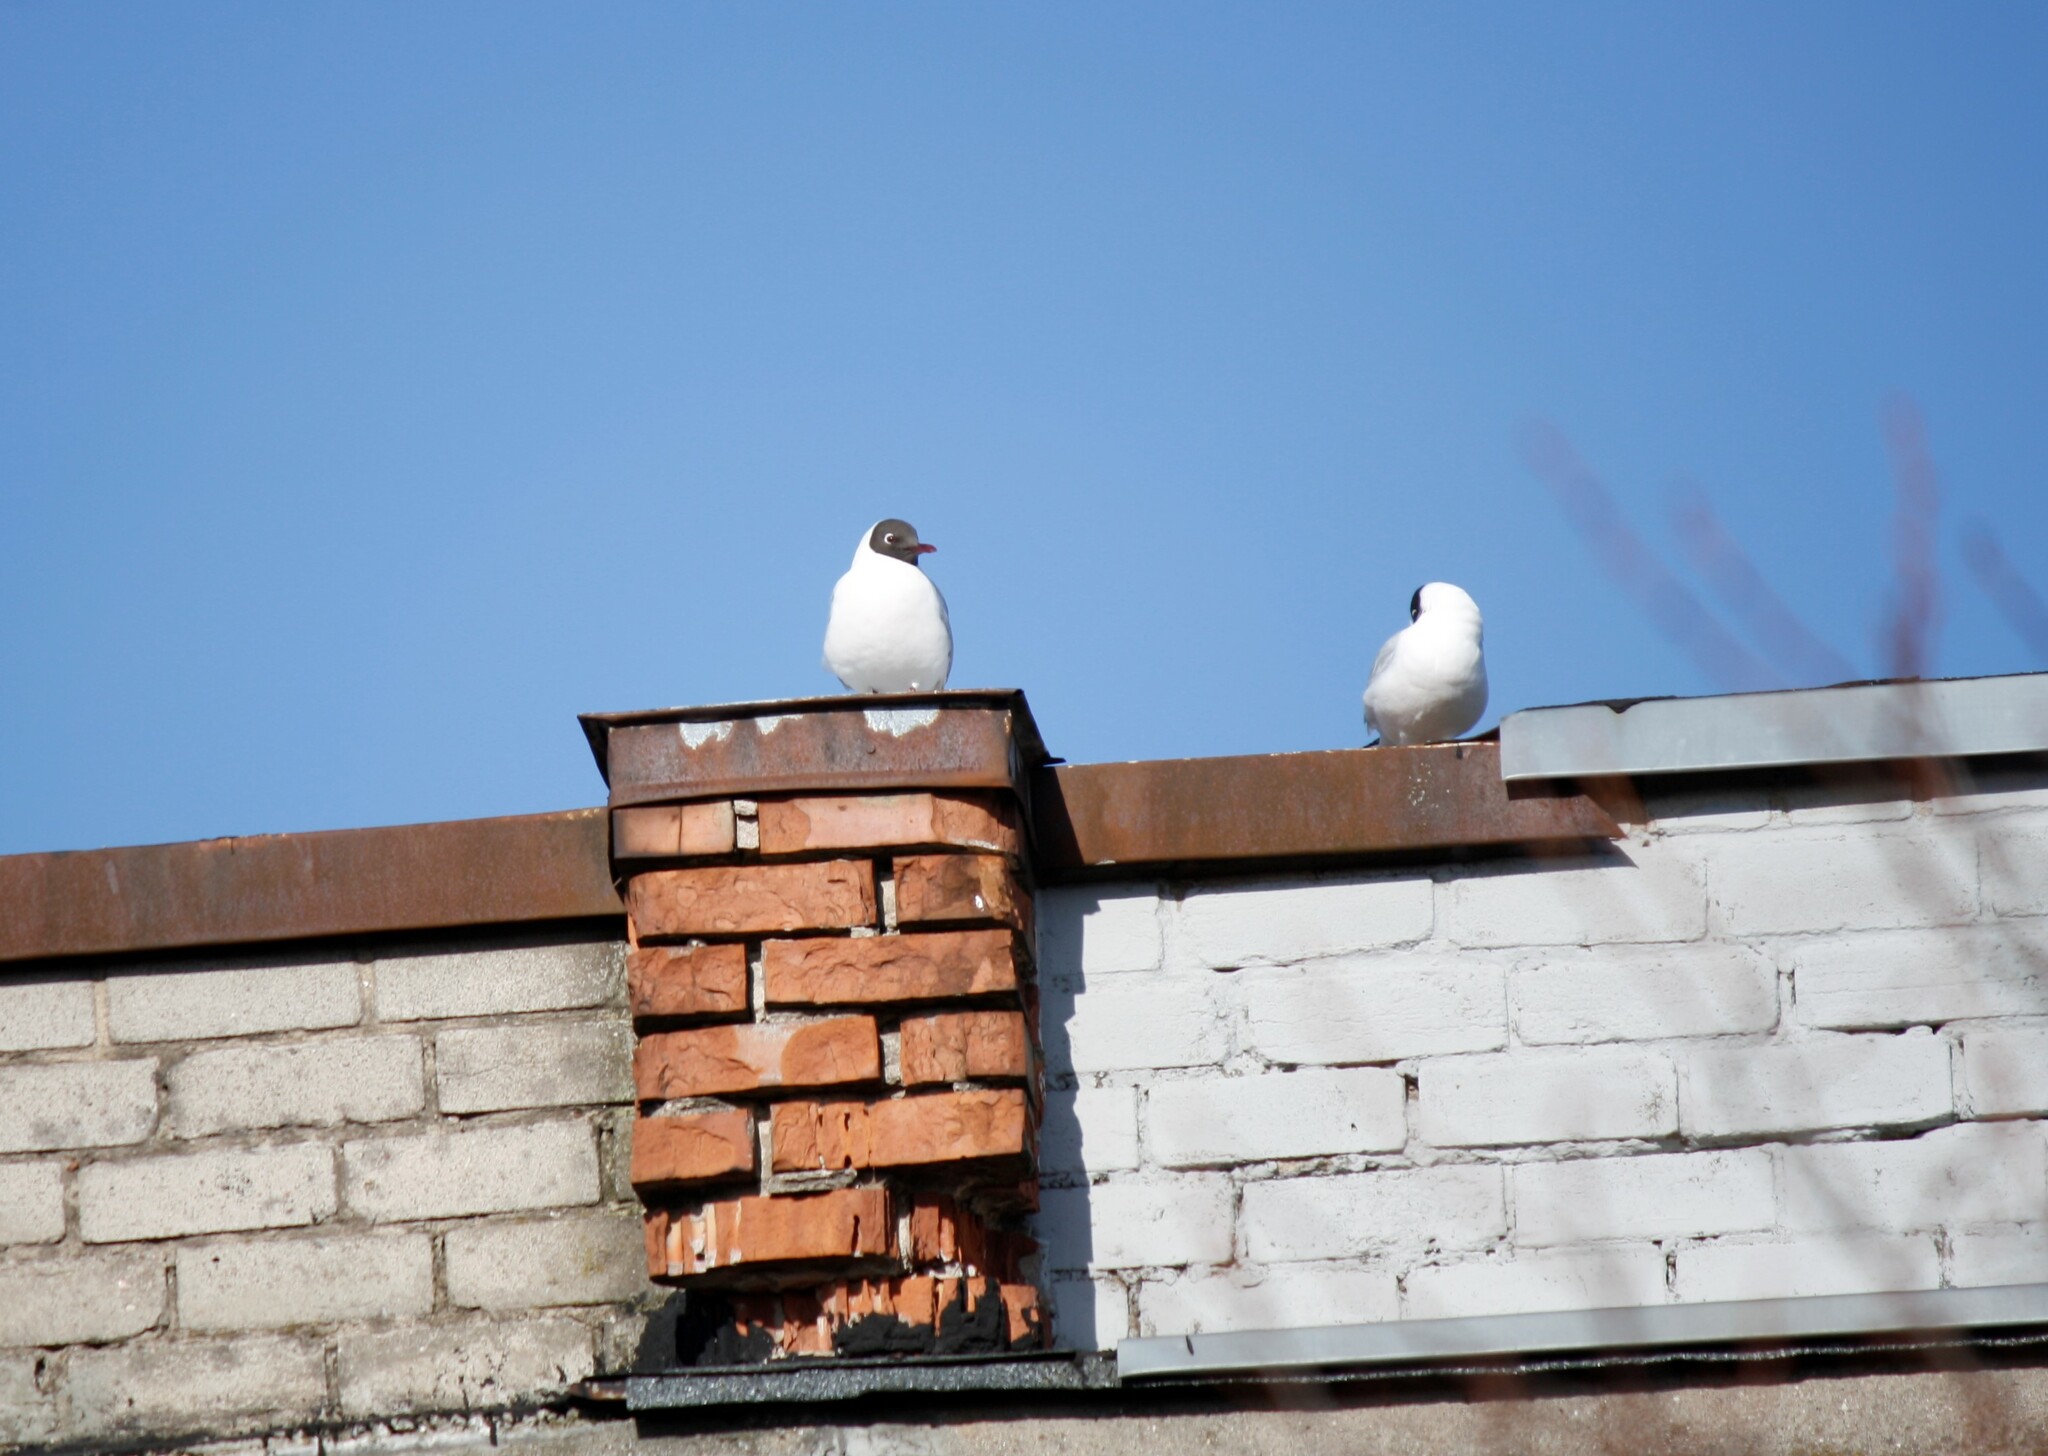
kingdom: Animalia
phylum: Chordata
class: Aves
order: Charadriiformes
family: Laridae
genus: Chroicocephalus
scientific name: Chroicocephalus ridibundus
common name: Black-headed gull
